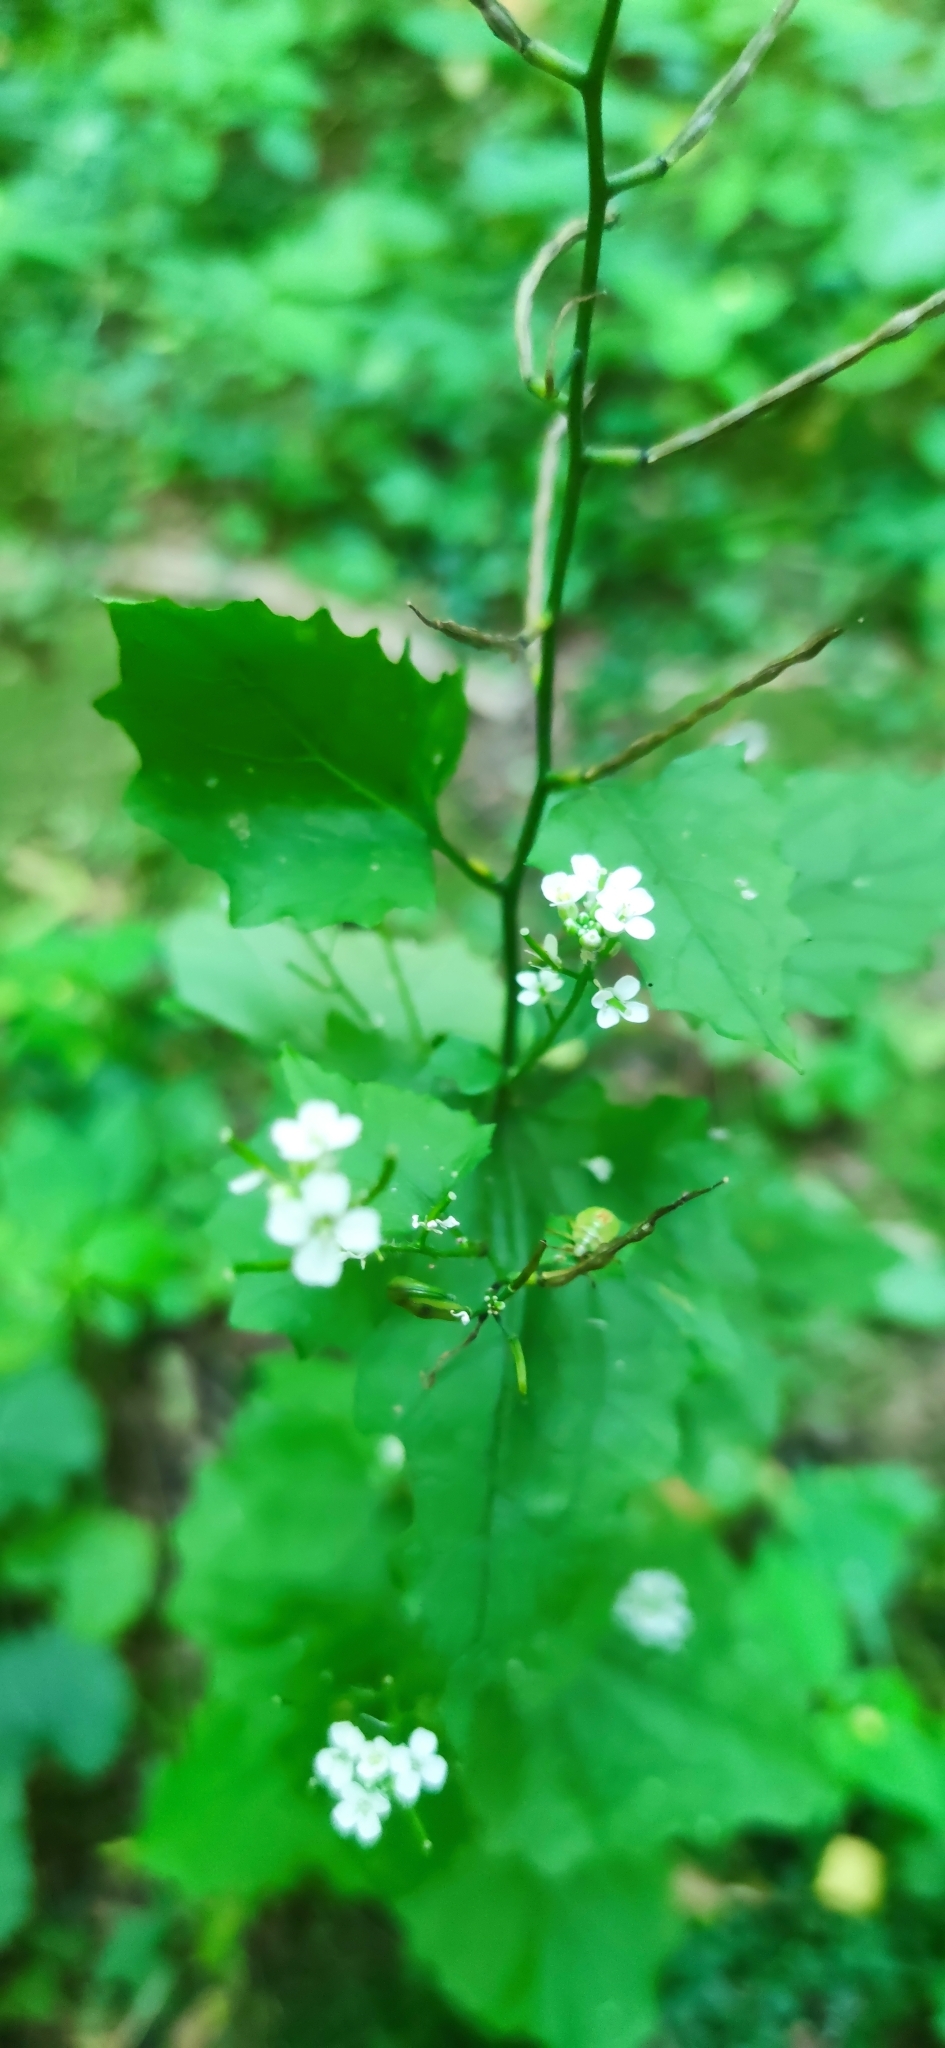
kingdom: Plantae
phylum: Tracheophyta
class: Magnoliopsida
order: Brassicales
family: Brassicaceae
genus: Alliaria
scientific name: Alliaria petiolata
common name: Garlic mustard
